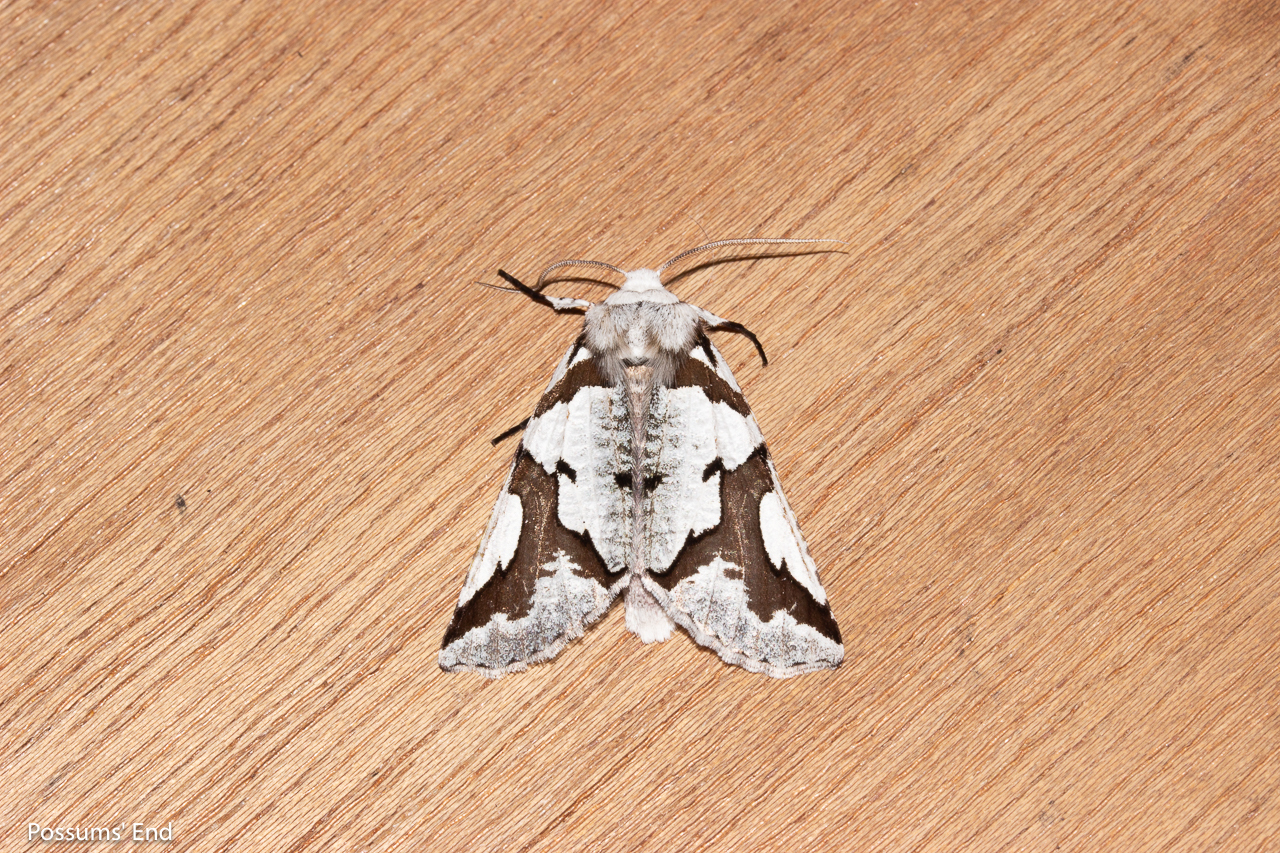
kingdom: Animalia
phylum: Arthropoda
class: Insecta
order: Lepidoptera
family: Geometridae
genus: Declana
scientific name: Declana
